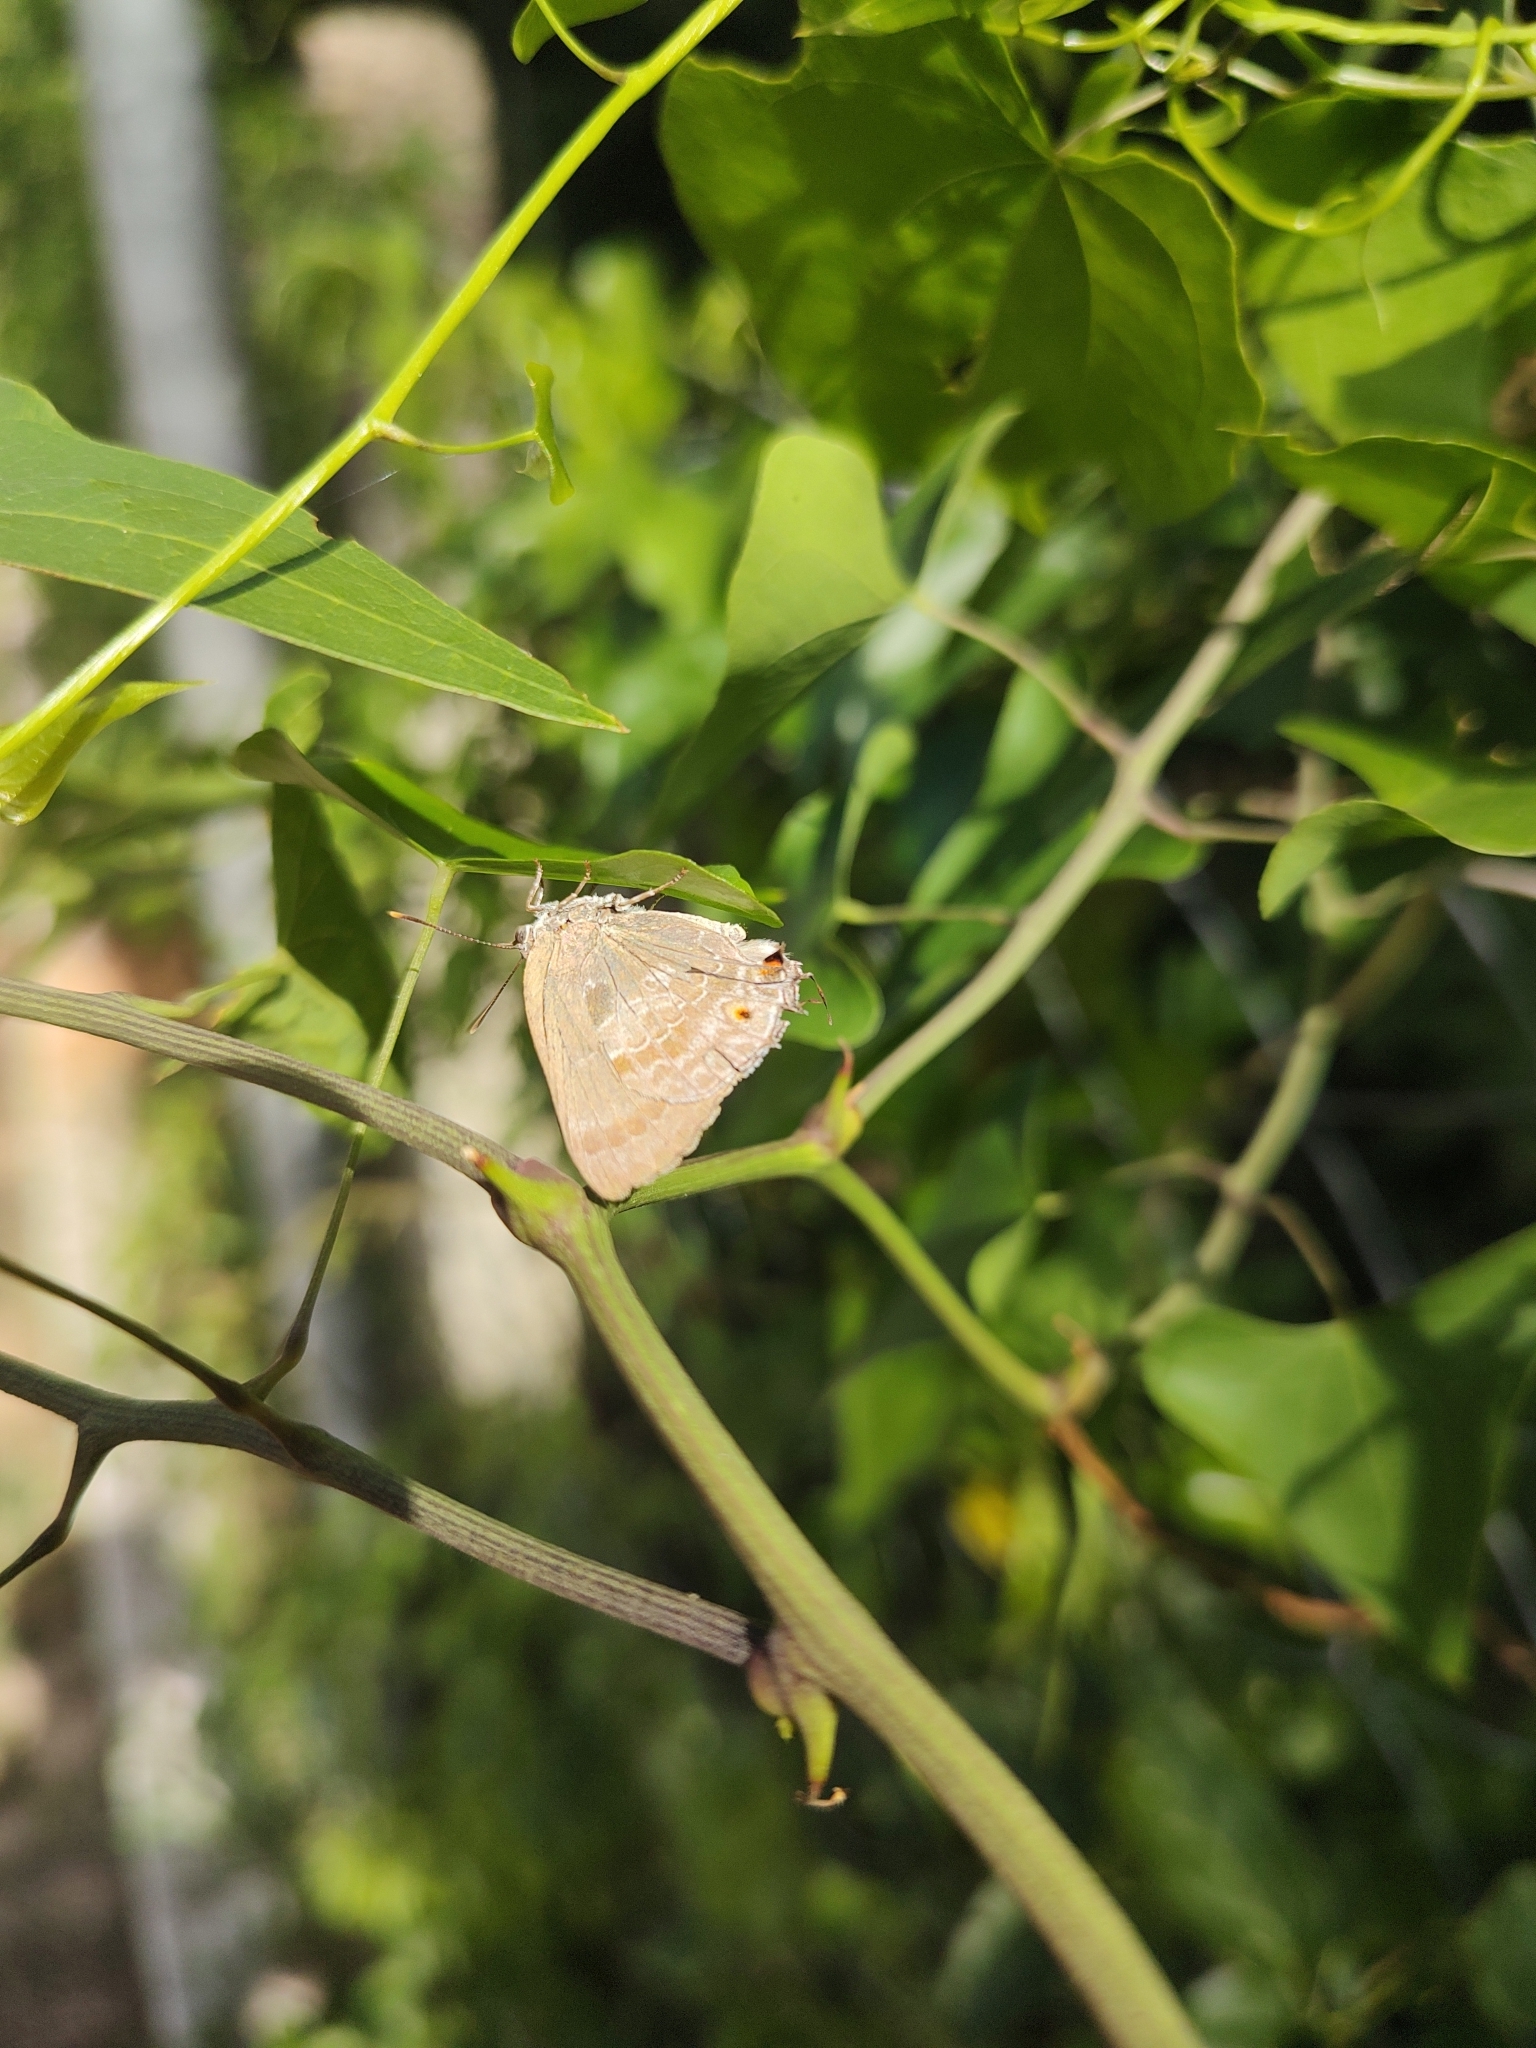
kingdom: Animalia
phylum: Arthropoda
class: Insecta
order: Lepidoptera
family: Lycaenidae
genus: Michaelus
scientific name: Michaelus thordesa
